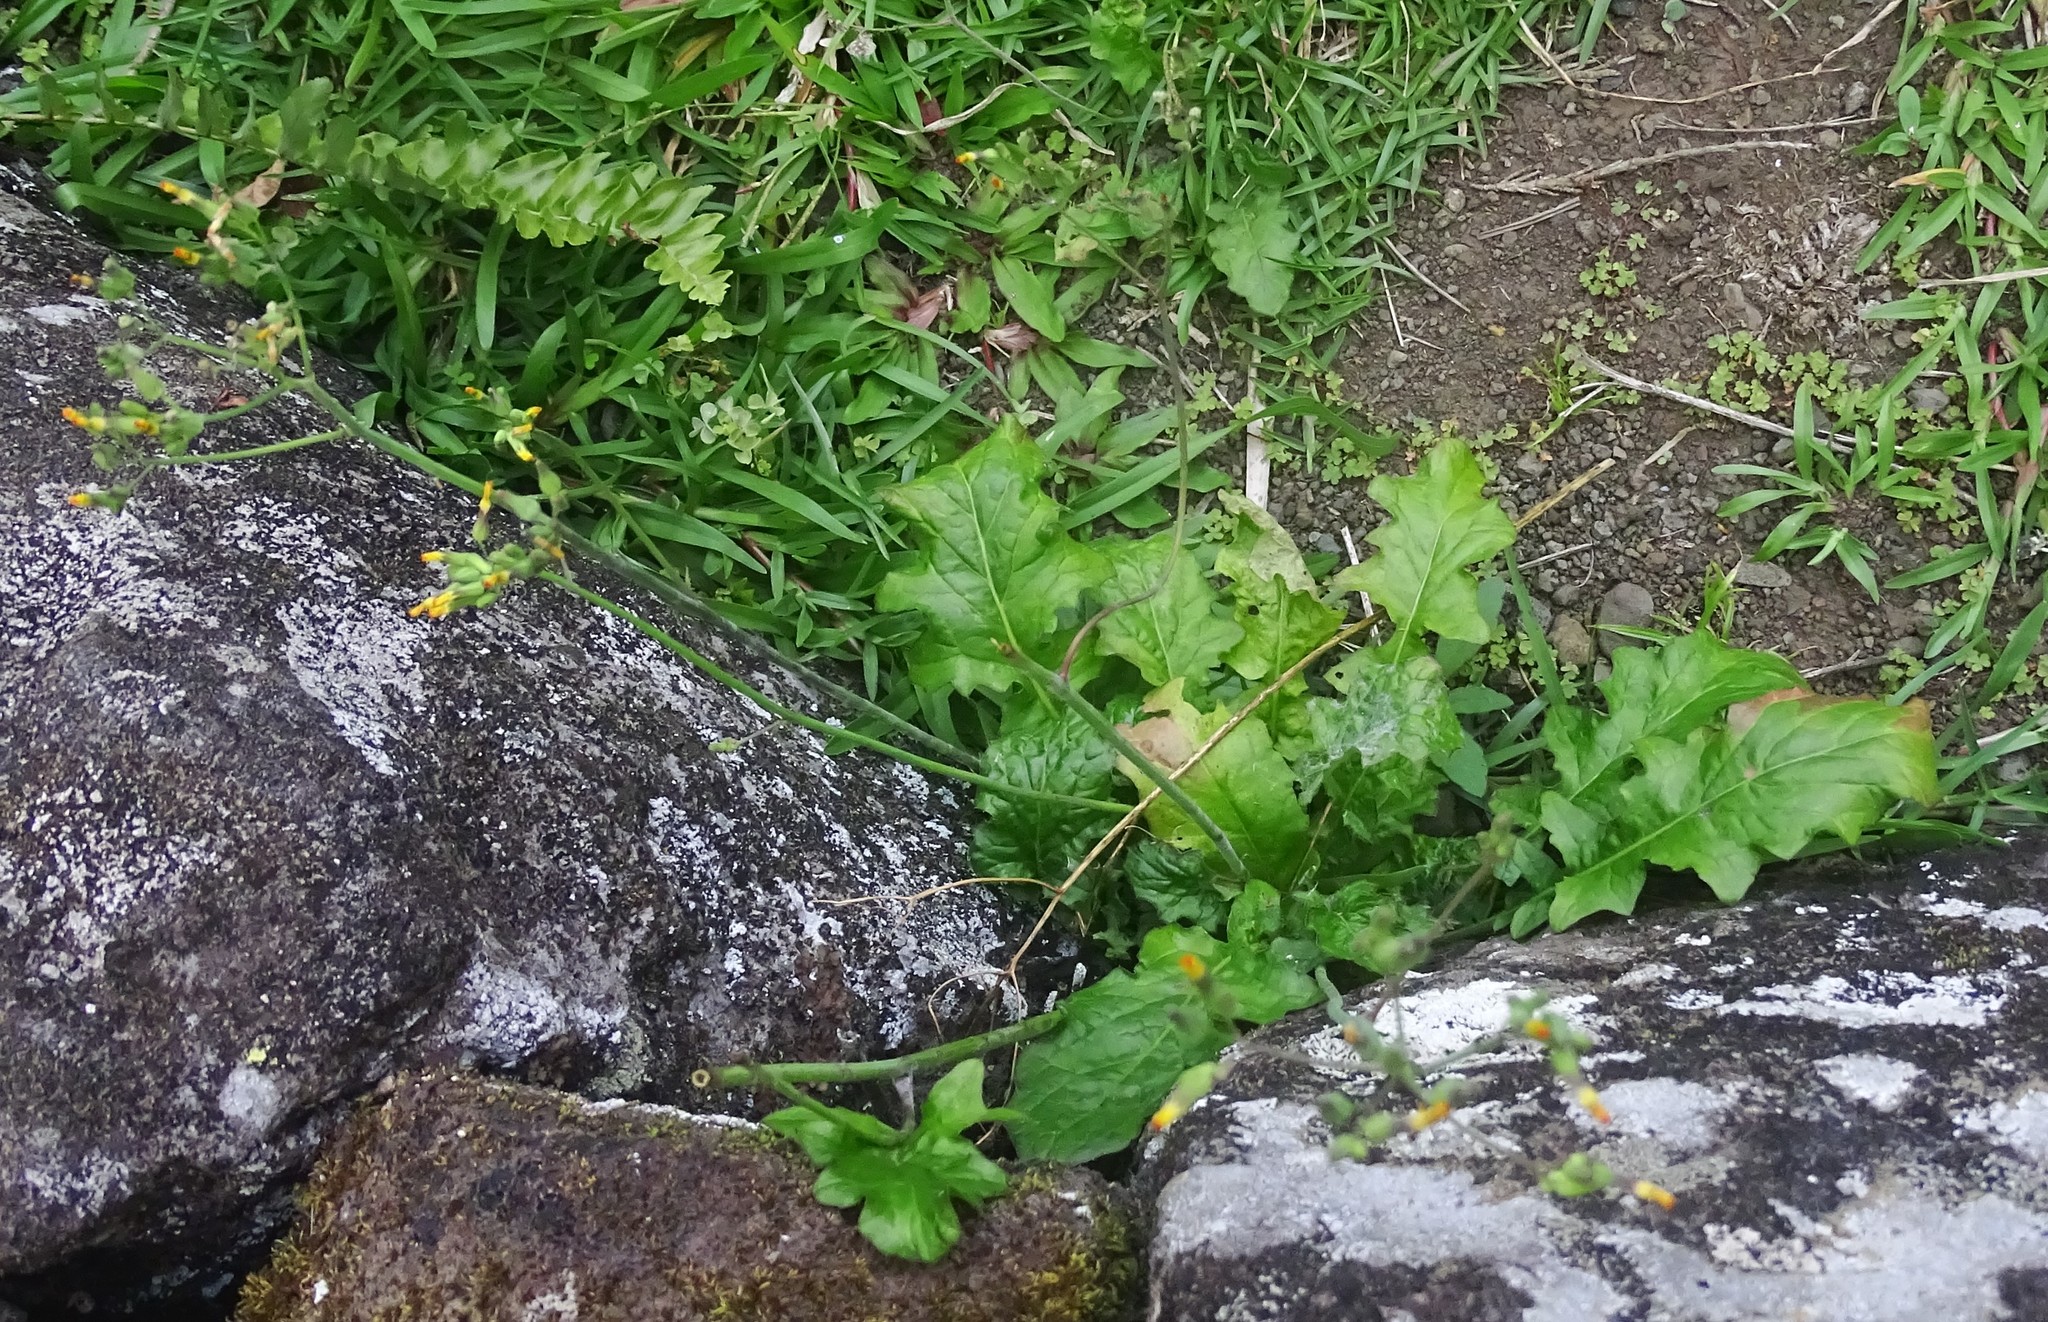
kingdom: Plantae
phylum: Tracheophyta
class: Magnoliopsida
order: Asterales
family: Asteraceae
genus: Youngia
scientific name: Youngia japonica
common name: Oriental false hawksbeard
